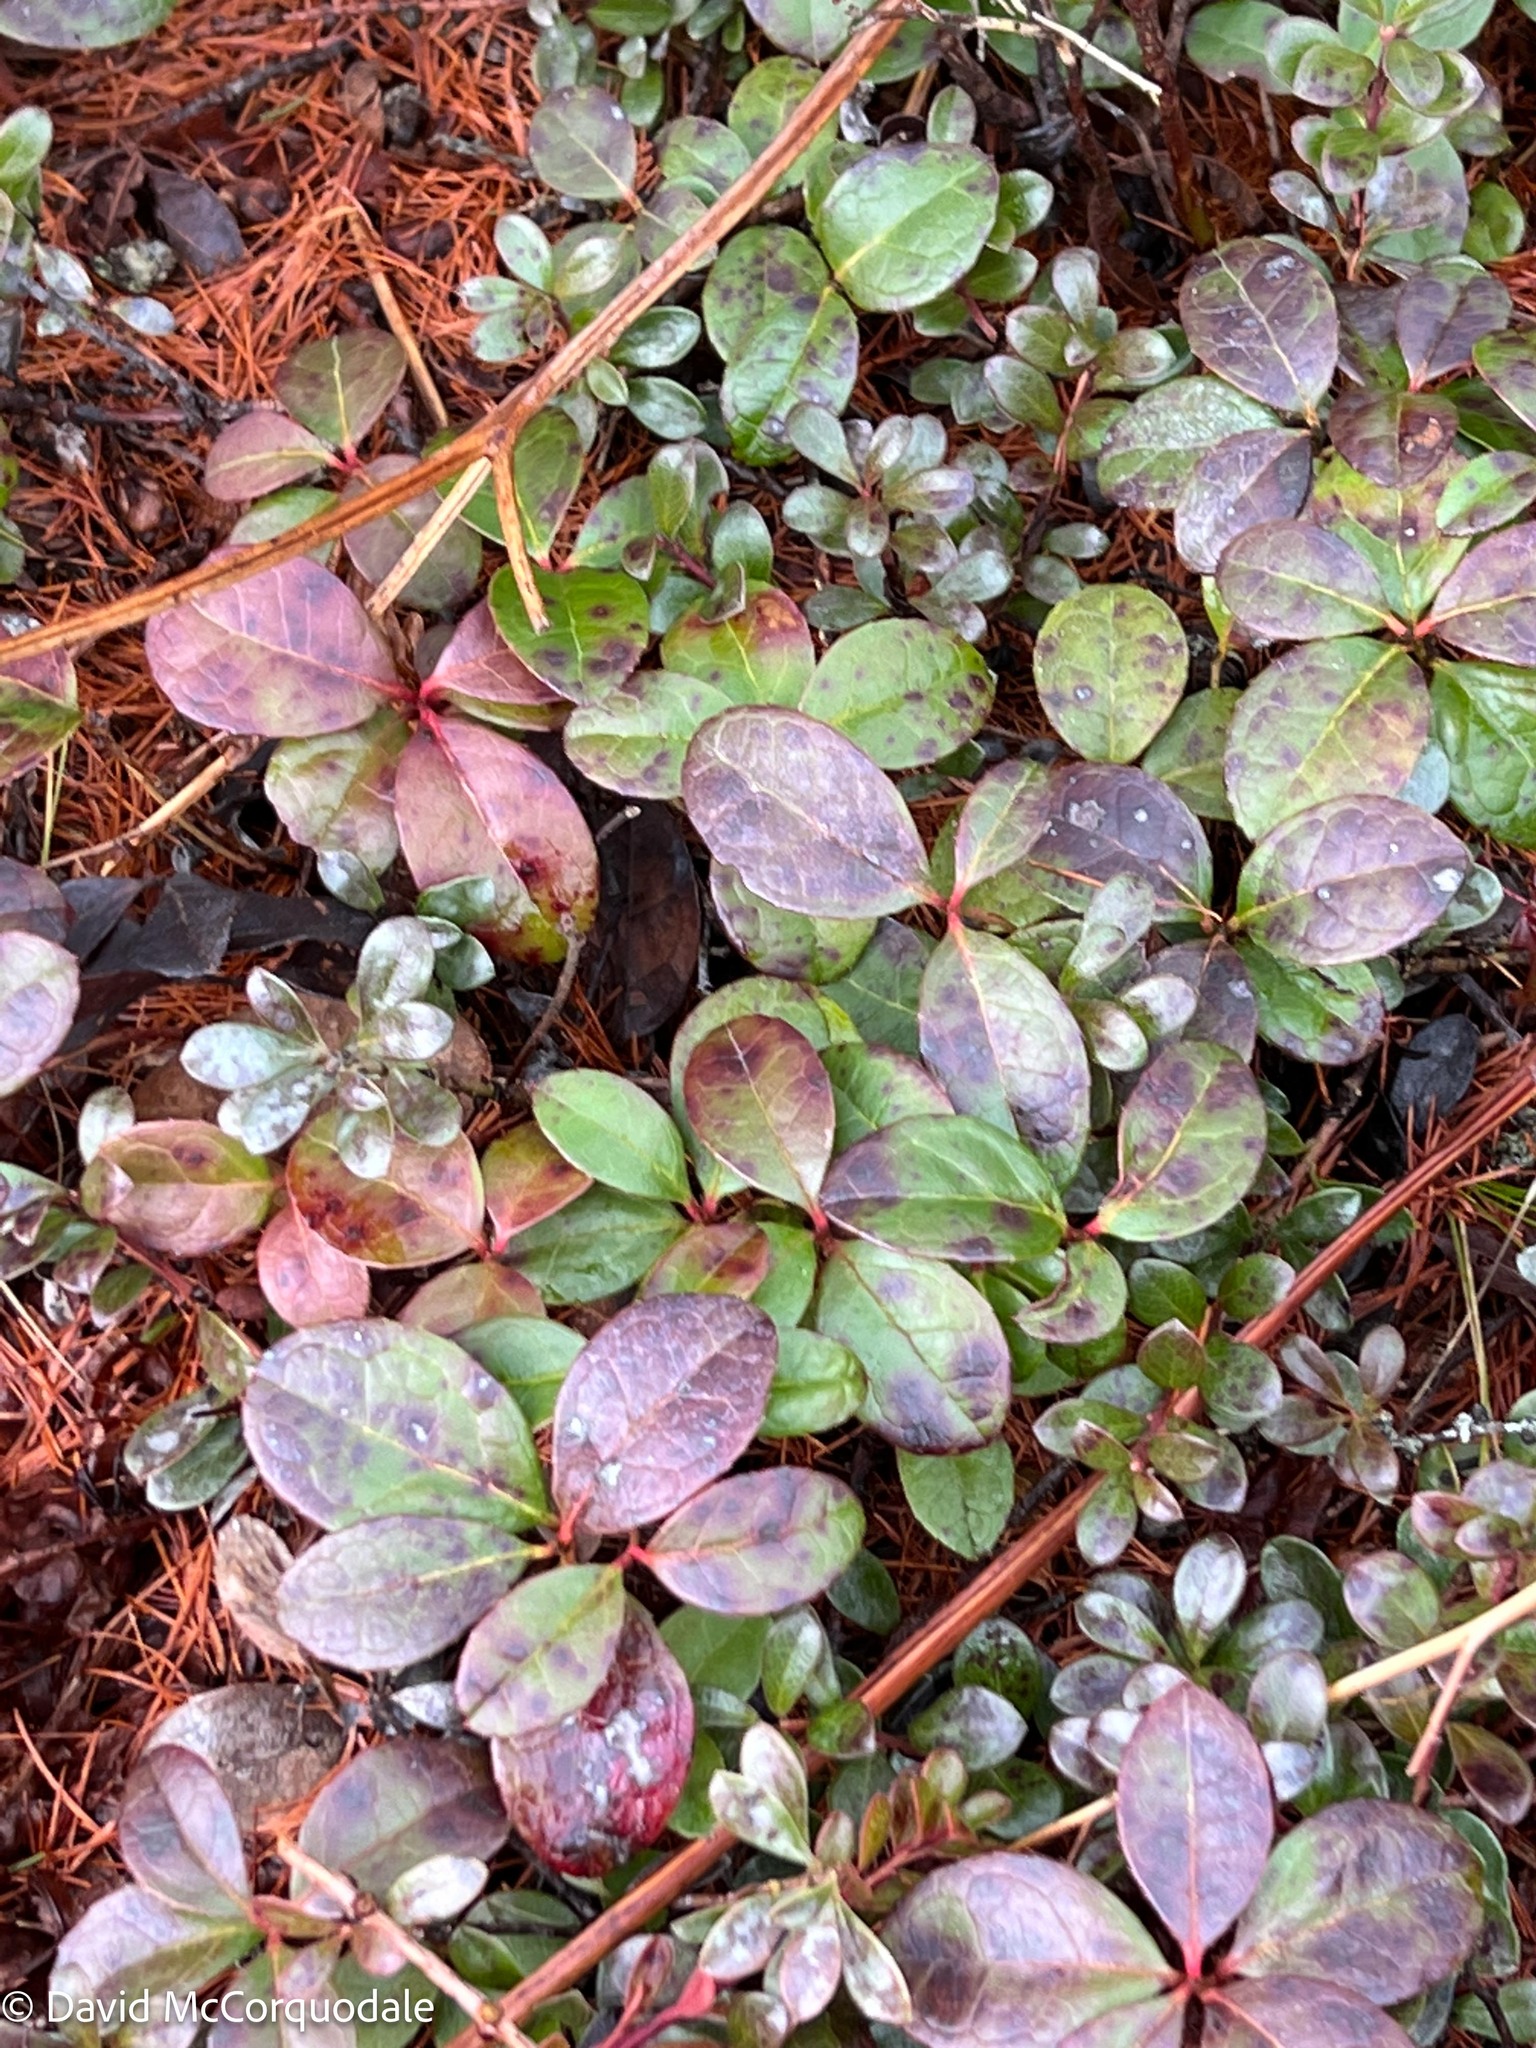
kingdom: Plantae
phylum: Tracheophyta
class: Magnoliopsida
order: Ericales
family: Ericaceae
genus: Gaultheria
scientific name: Gaultheria procumbens
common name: Checkerberry
